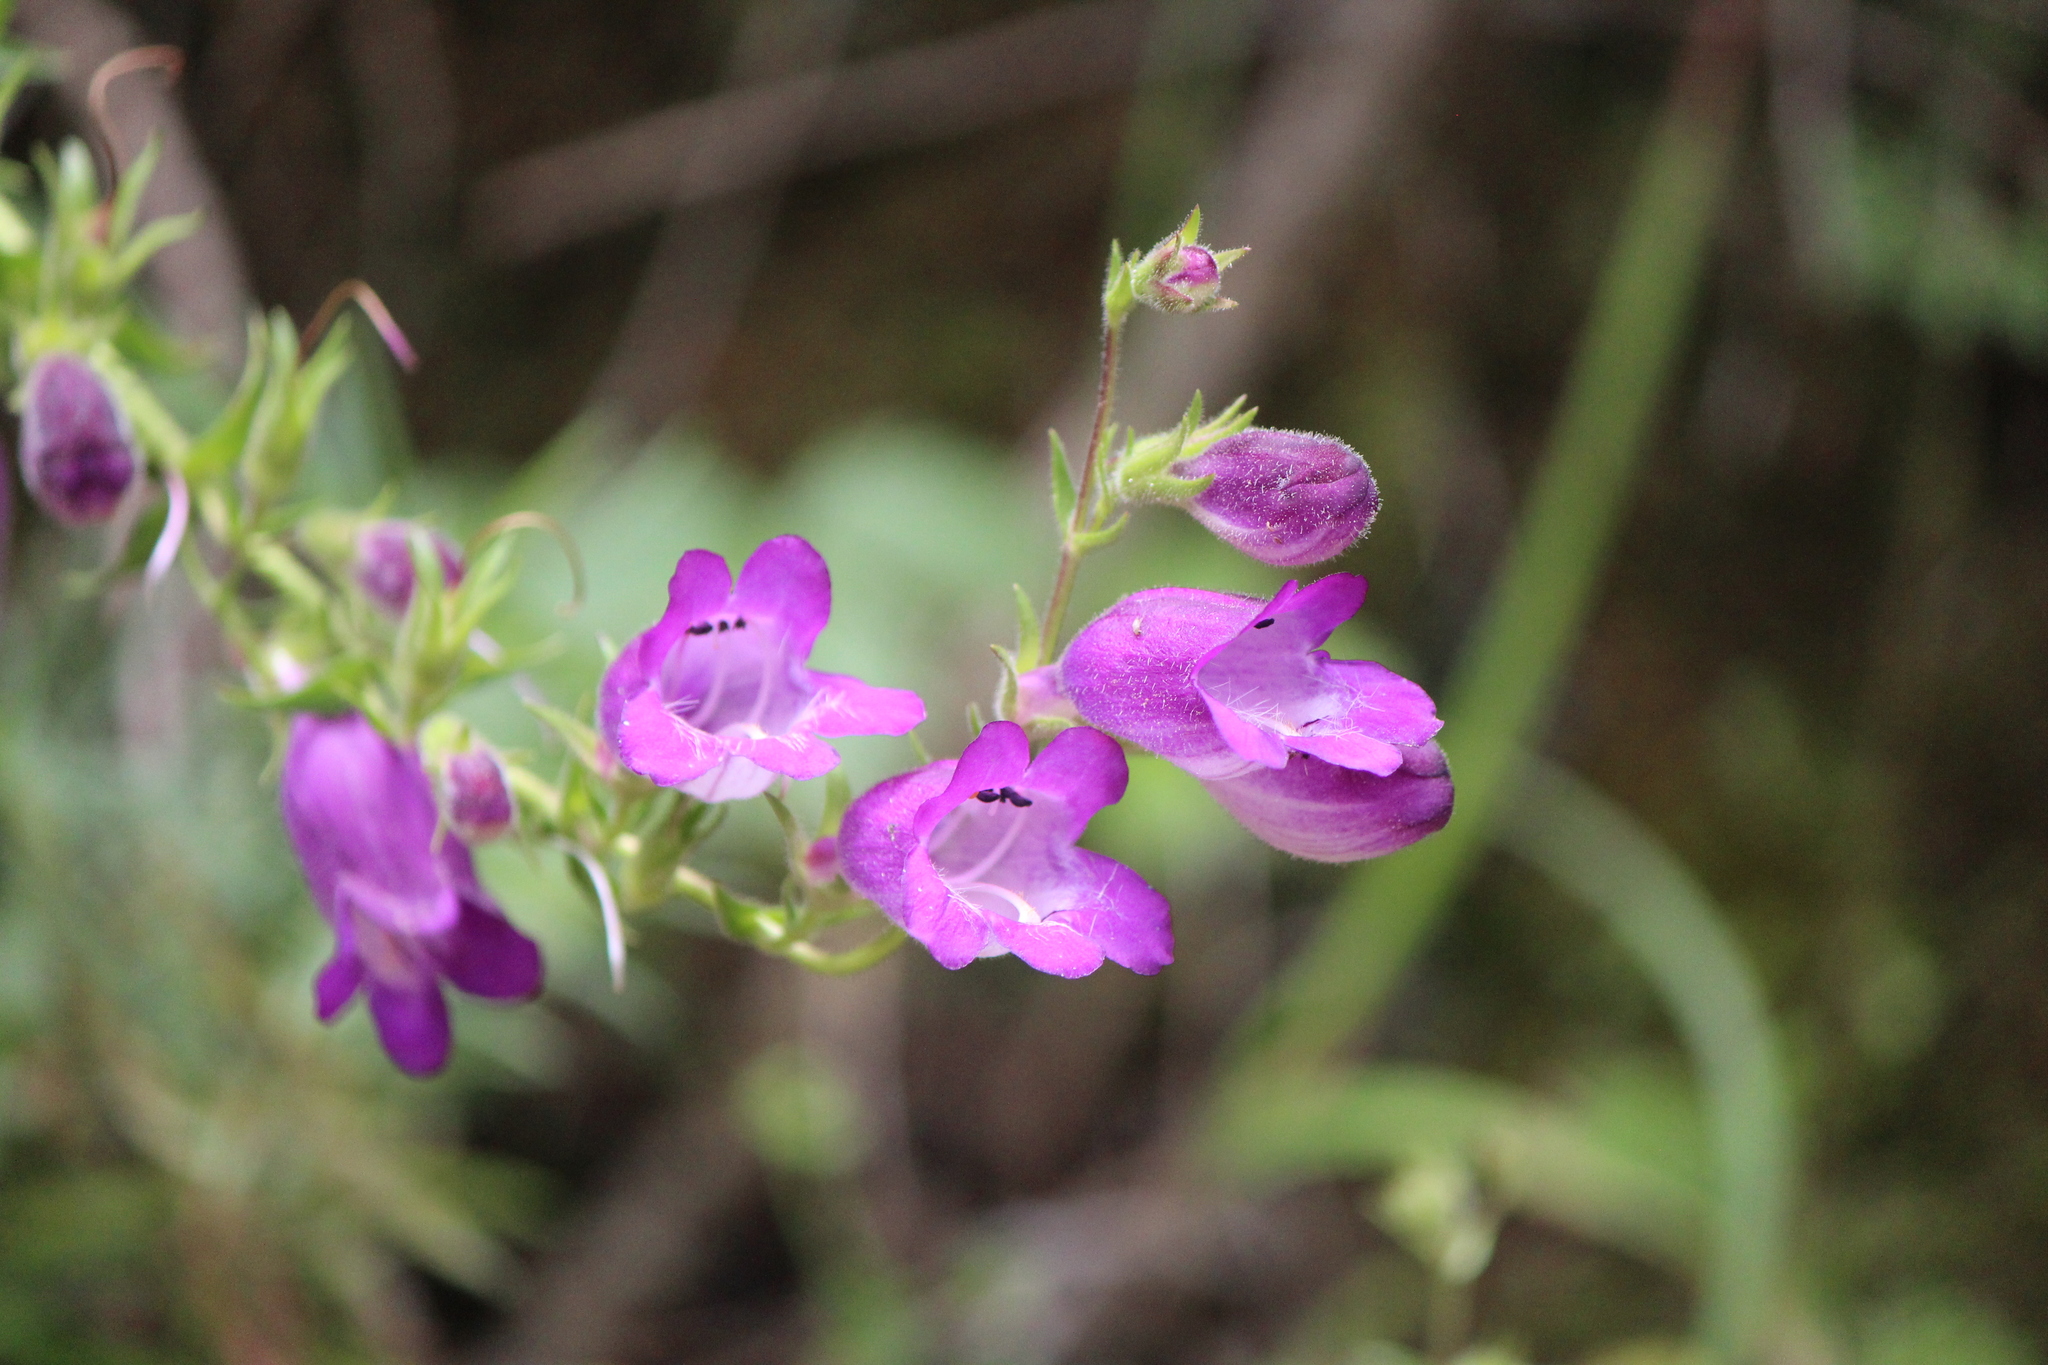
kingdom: Plantae
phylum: Tracheophyta
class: Magnoliopsida
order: Lamiales
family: Plantaginaceae
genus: Penstemon
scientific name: Penstemon campanulatus
